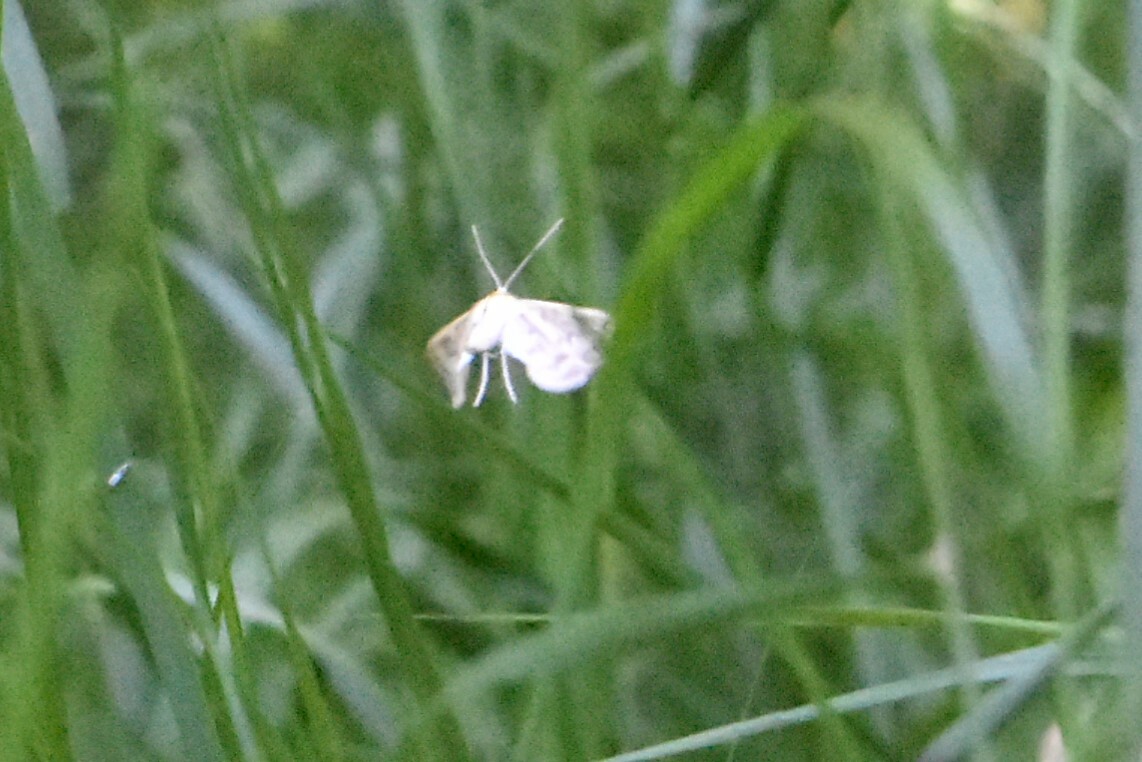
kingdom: Animalia
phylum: Arthropoda
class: Insecta
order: Lepidoptera
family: Crambidae
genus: Cataclysta
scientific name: Cataclysta lemnata
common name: Small china-mark
